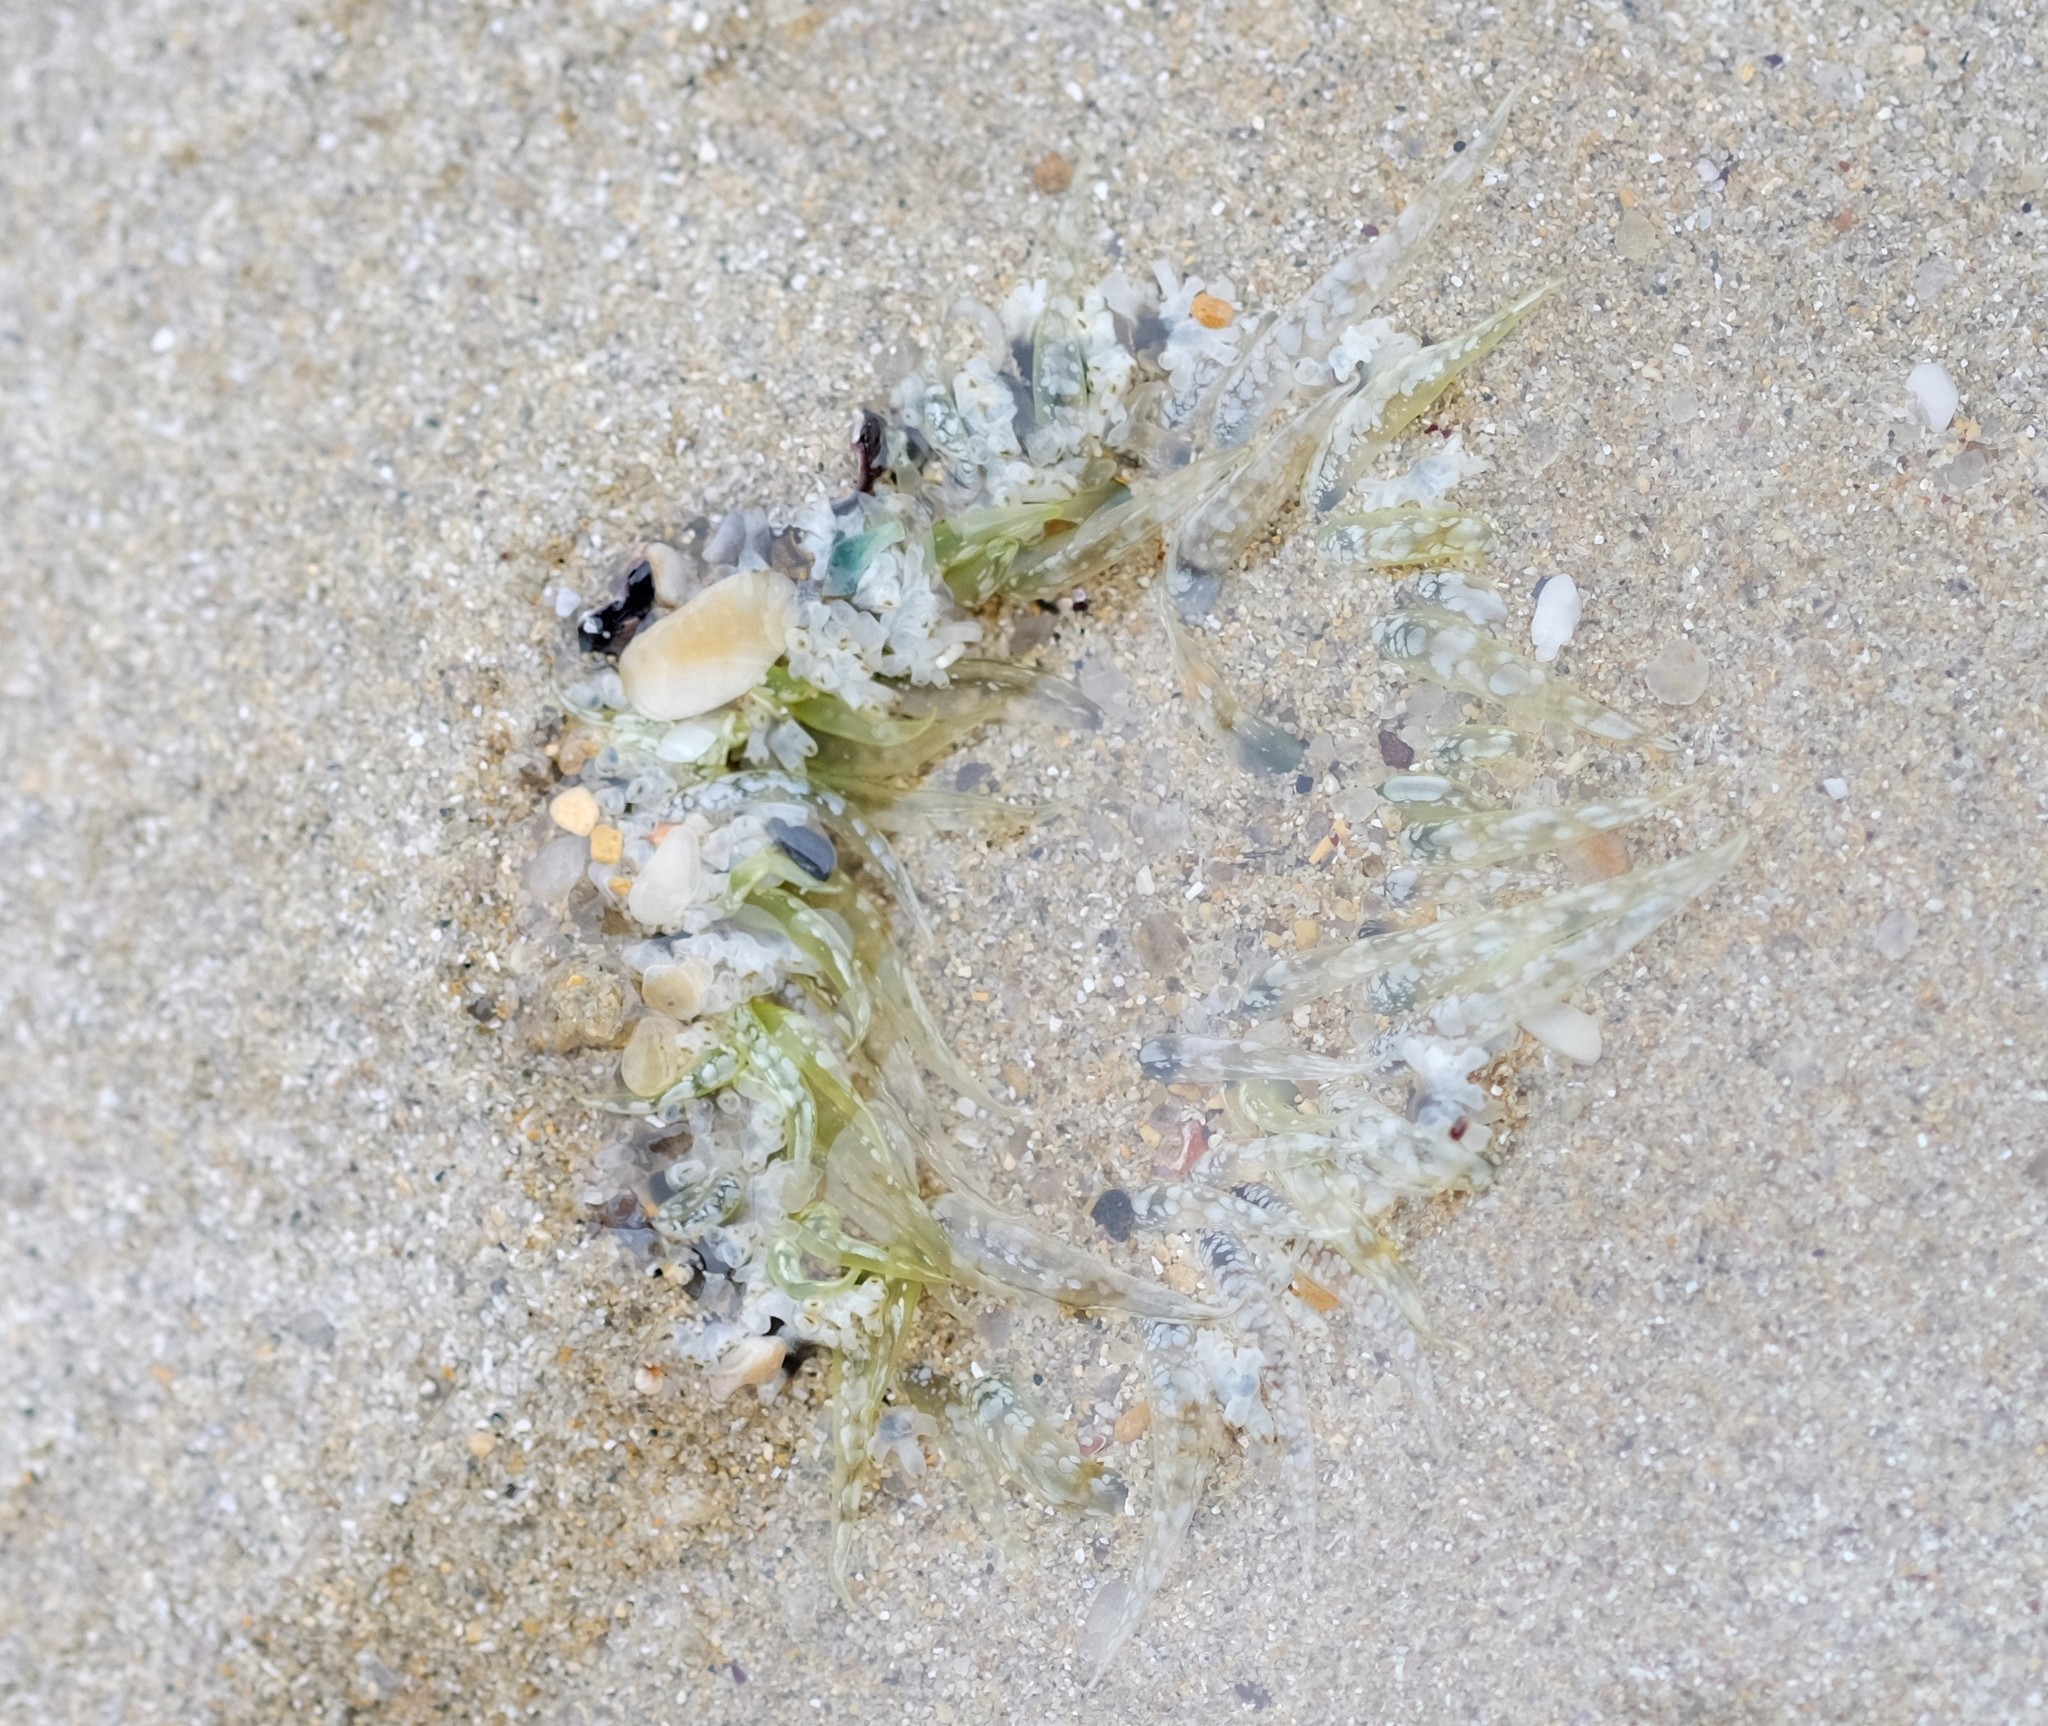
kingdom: Animalia
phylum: Cnidaria
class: Anthozoa
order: Actiniaria
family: Actiniidae
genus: Oulactis
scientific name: Oulactis muscosa
